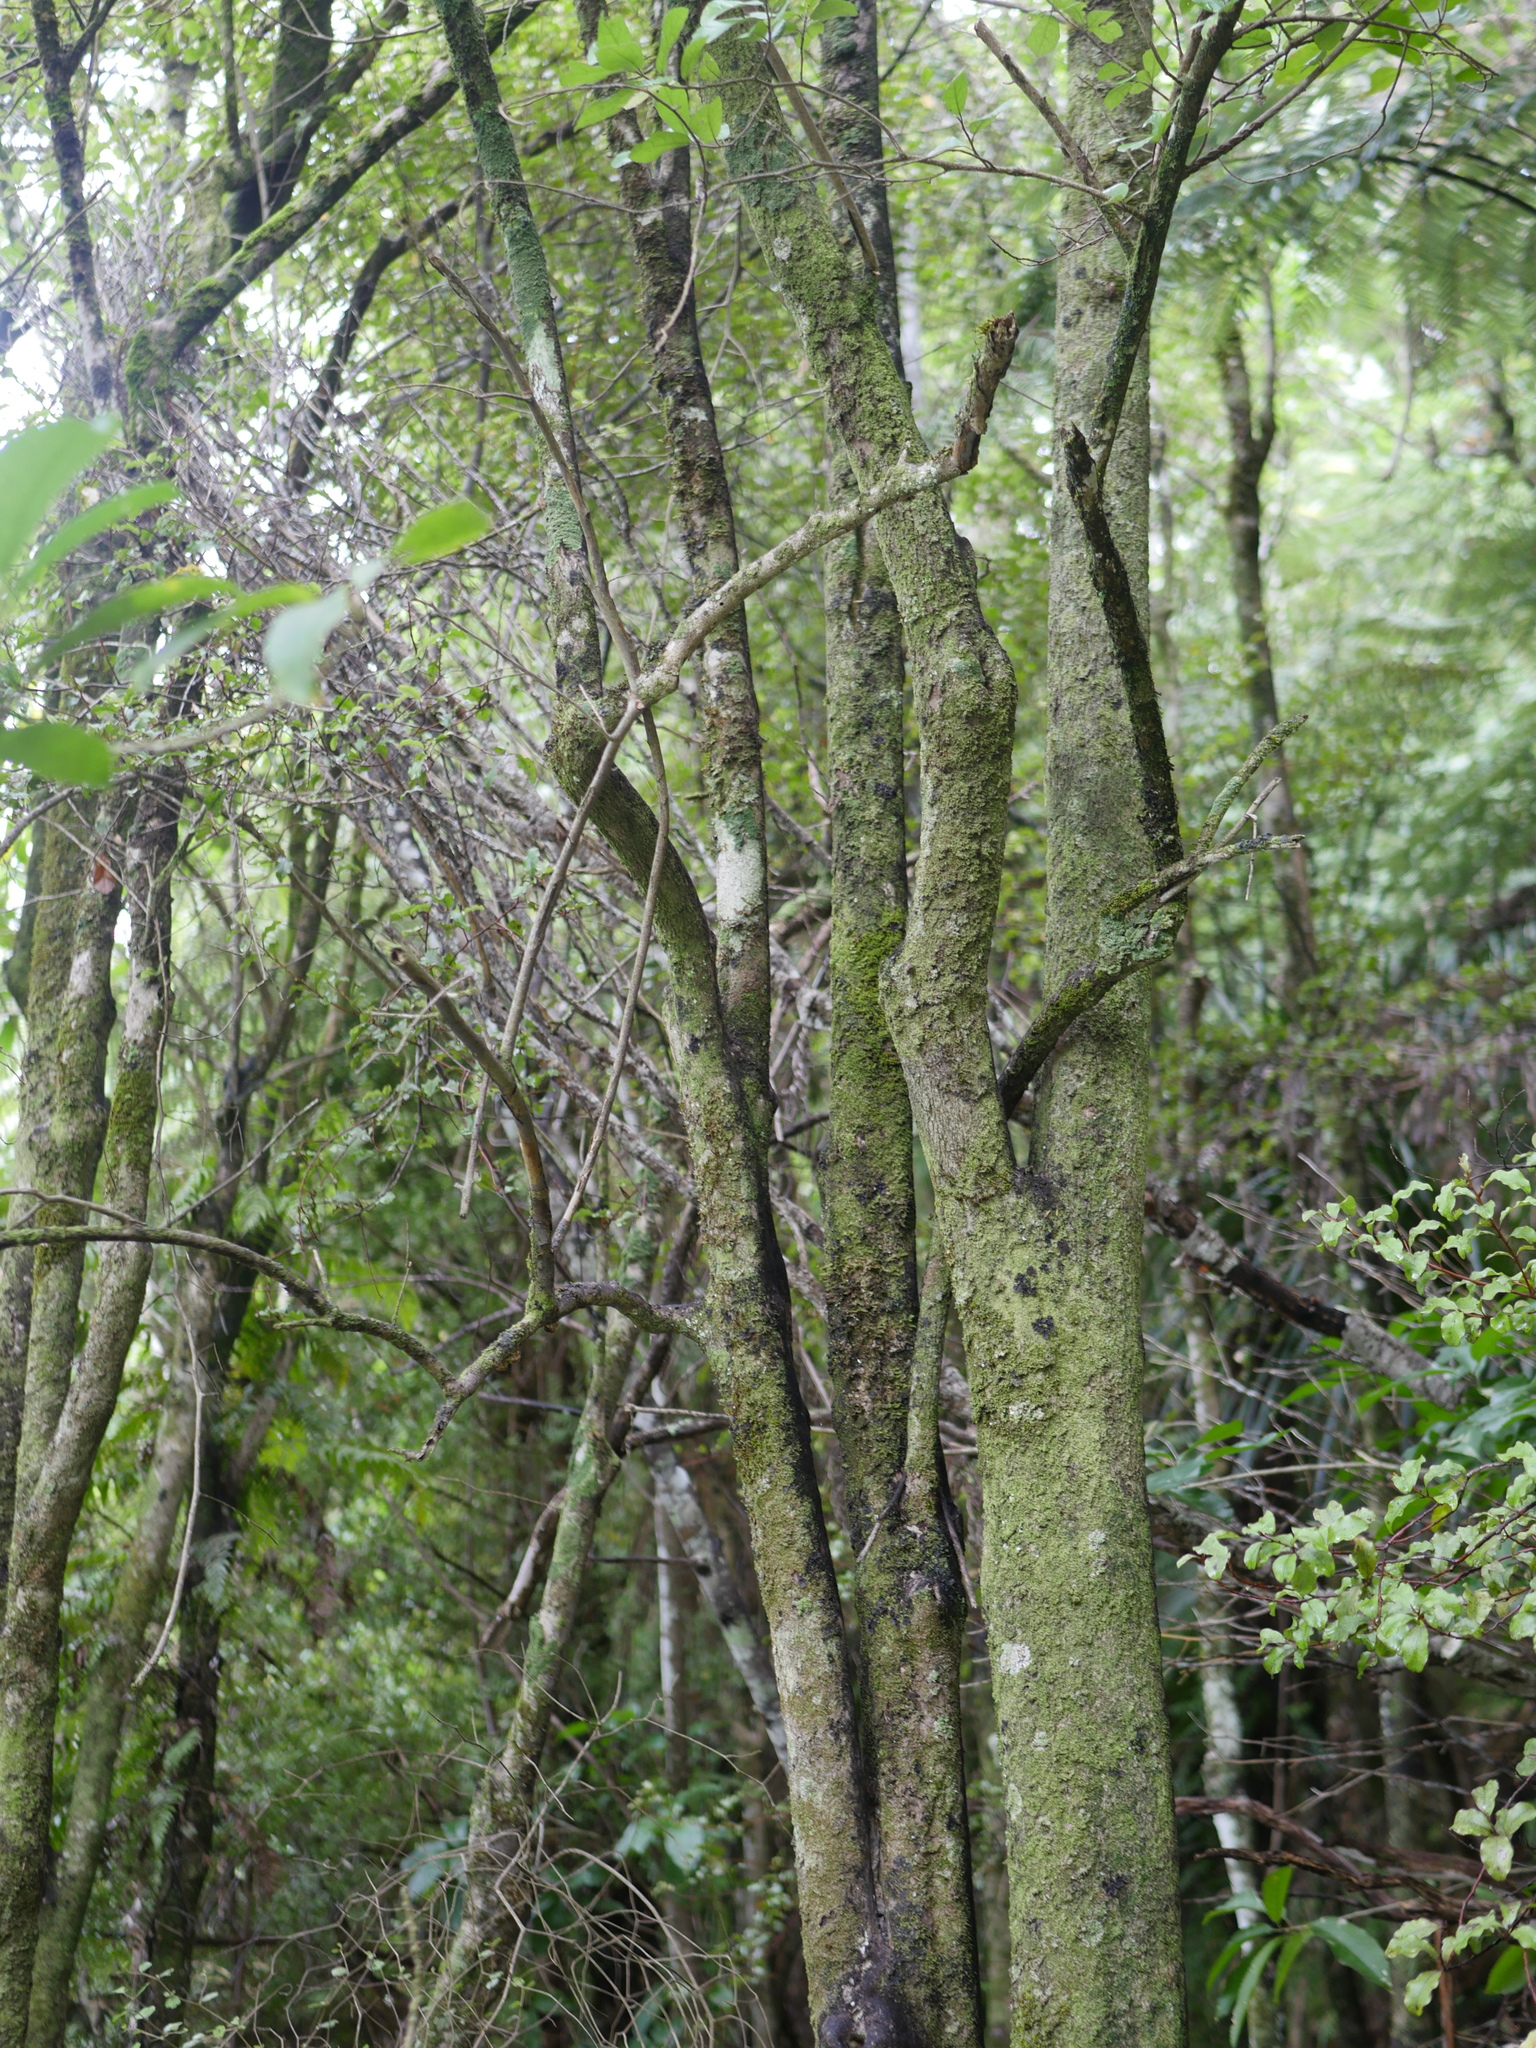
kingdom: Plantae
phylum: Tracheophyta
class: Magnoliopsida
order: Apiales
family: Pennantiaceae
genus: Pennantia
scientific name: Pennantia corymbosa
